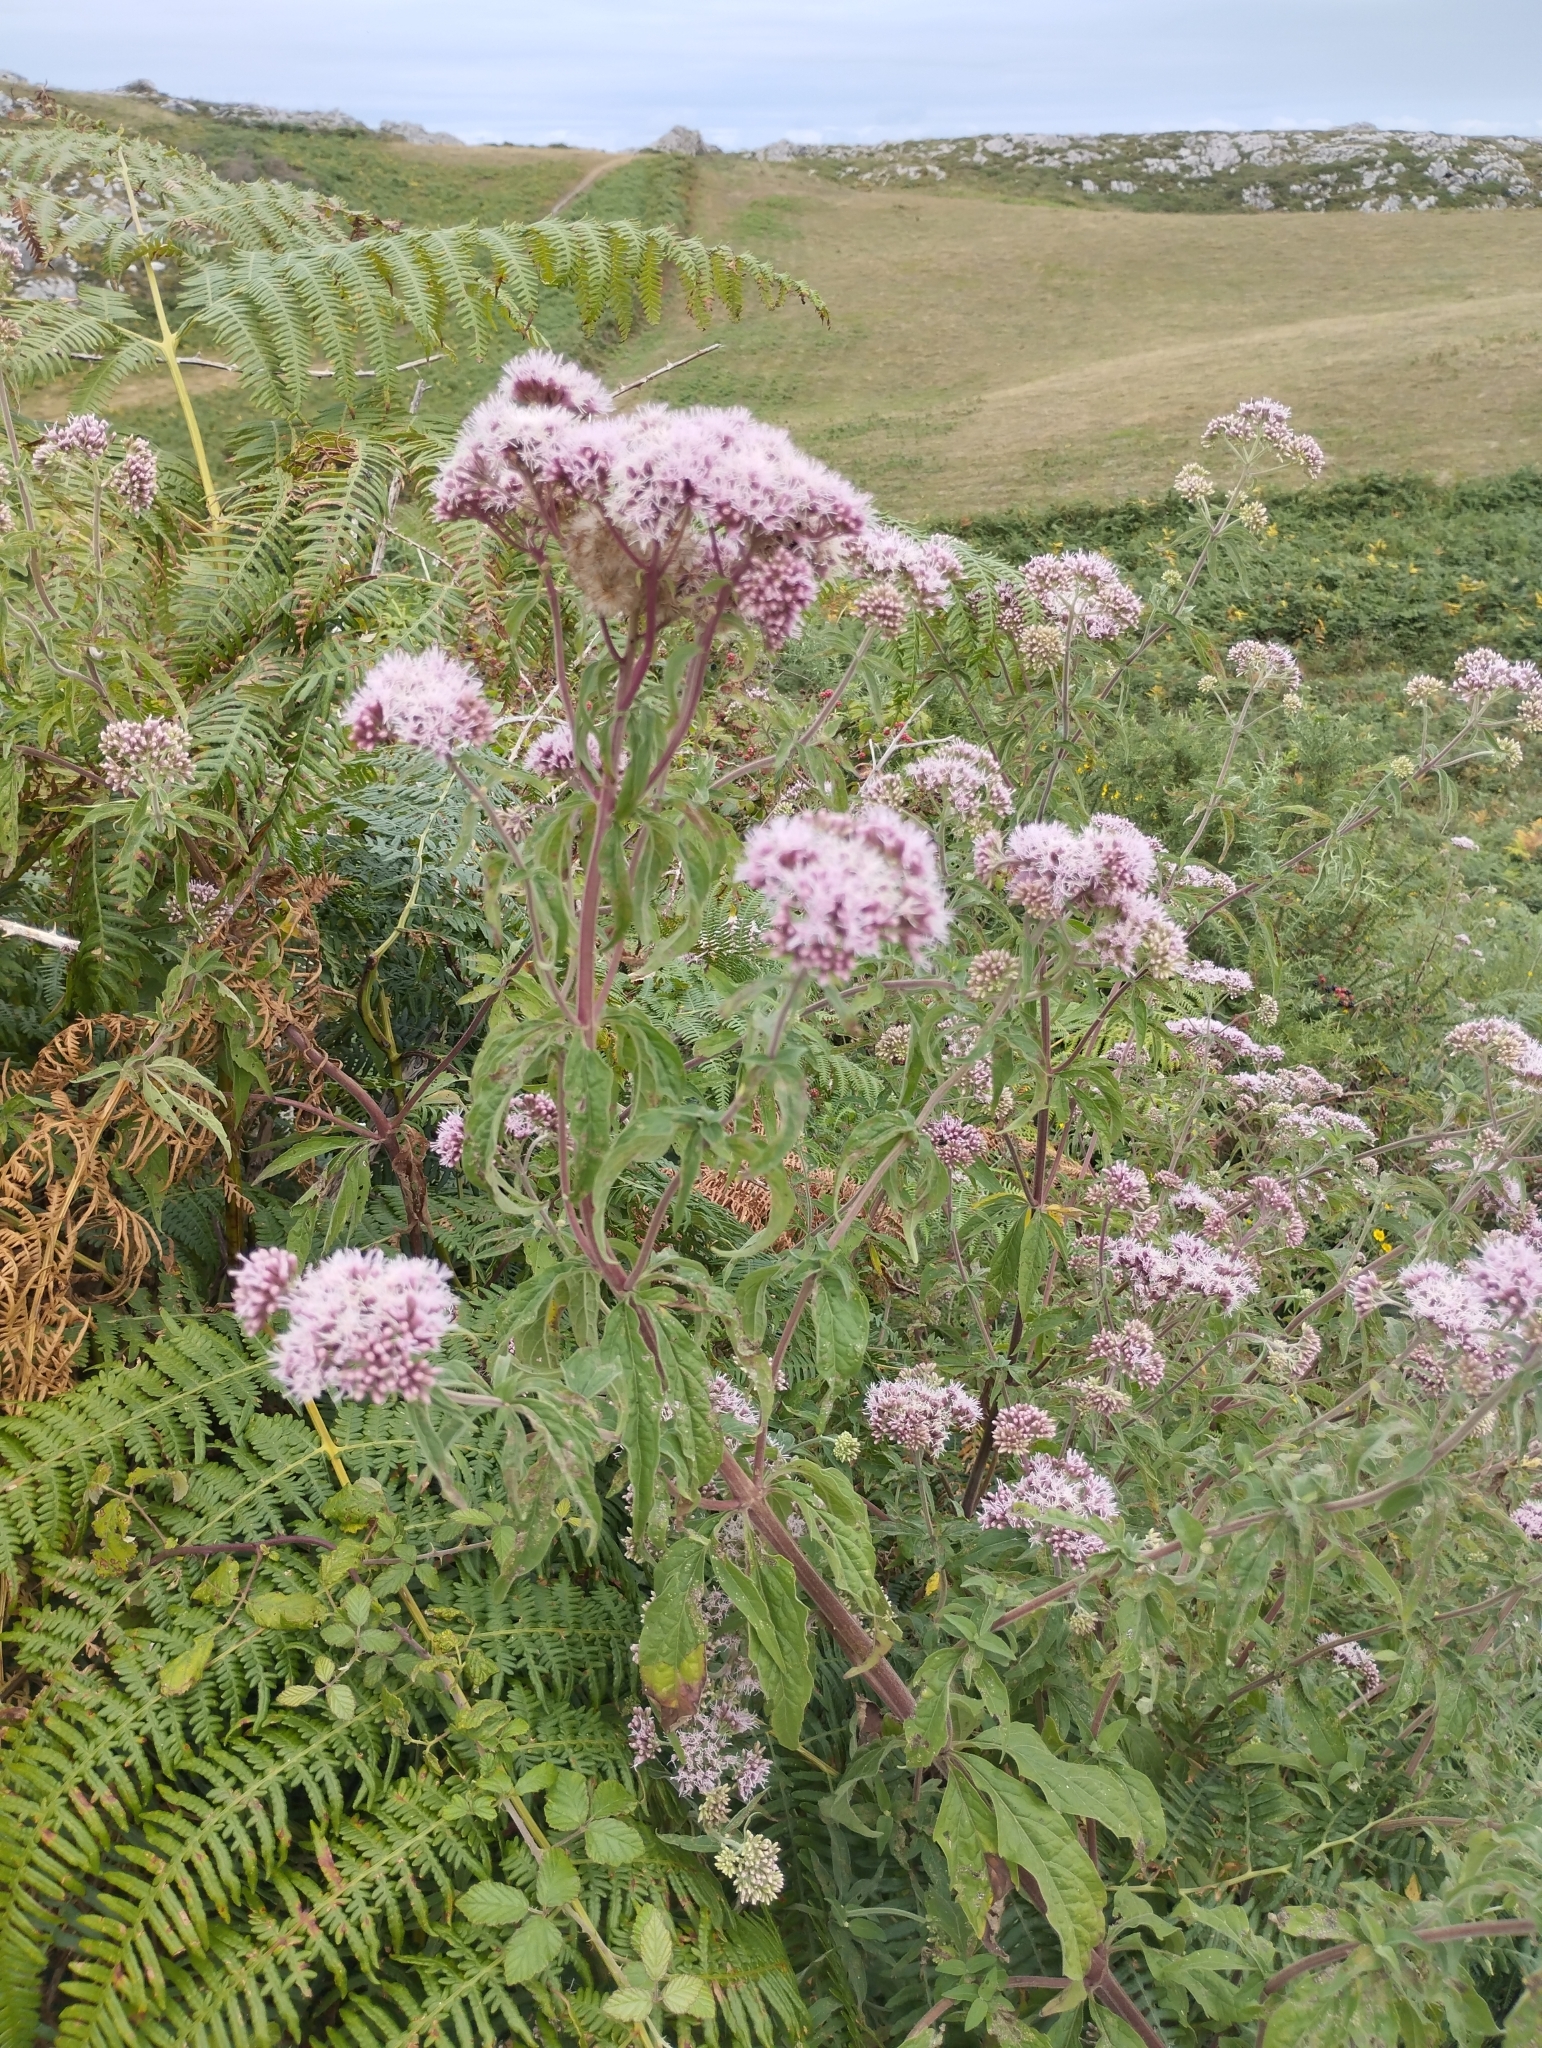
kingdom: Plantae
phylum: Tracheophyta
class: Magnoliopsida
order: Asterales
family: Asteraceae
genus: Eupatorium
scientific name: Eupatorium cannabinum
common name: Hemp-agrimony
